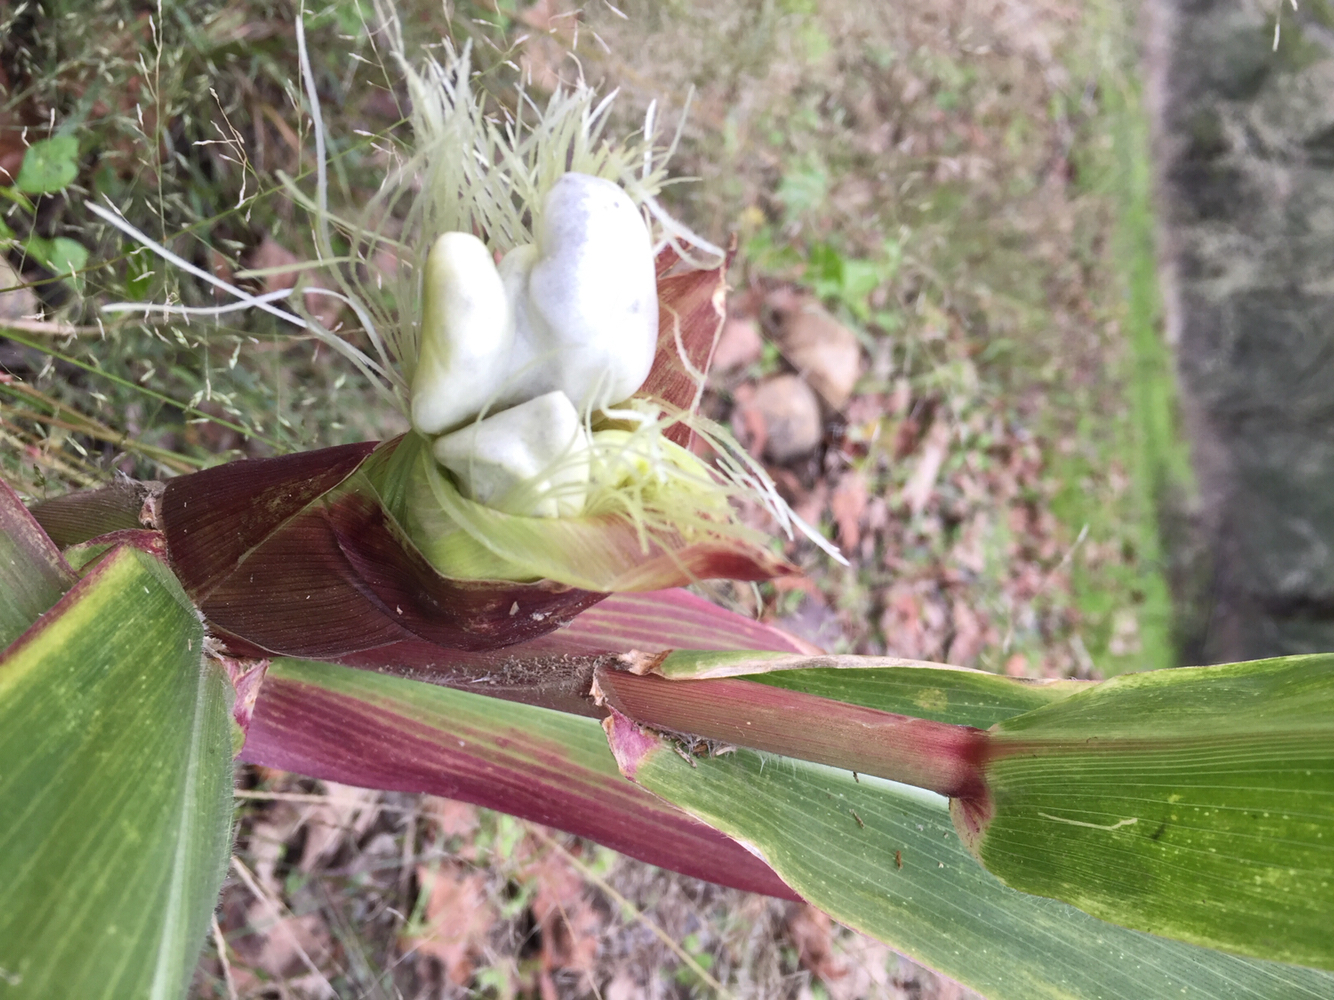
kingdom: Fungi
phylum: Basidiomycota
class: Ustilaginomycetes
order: Ustilaginales
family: Ustilaginaceae
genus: Mycosarcoma
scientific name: Mycosarcoma maydis
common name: Corn smut
